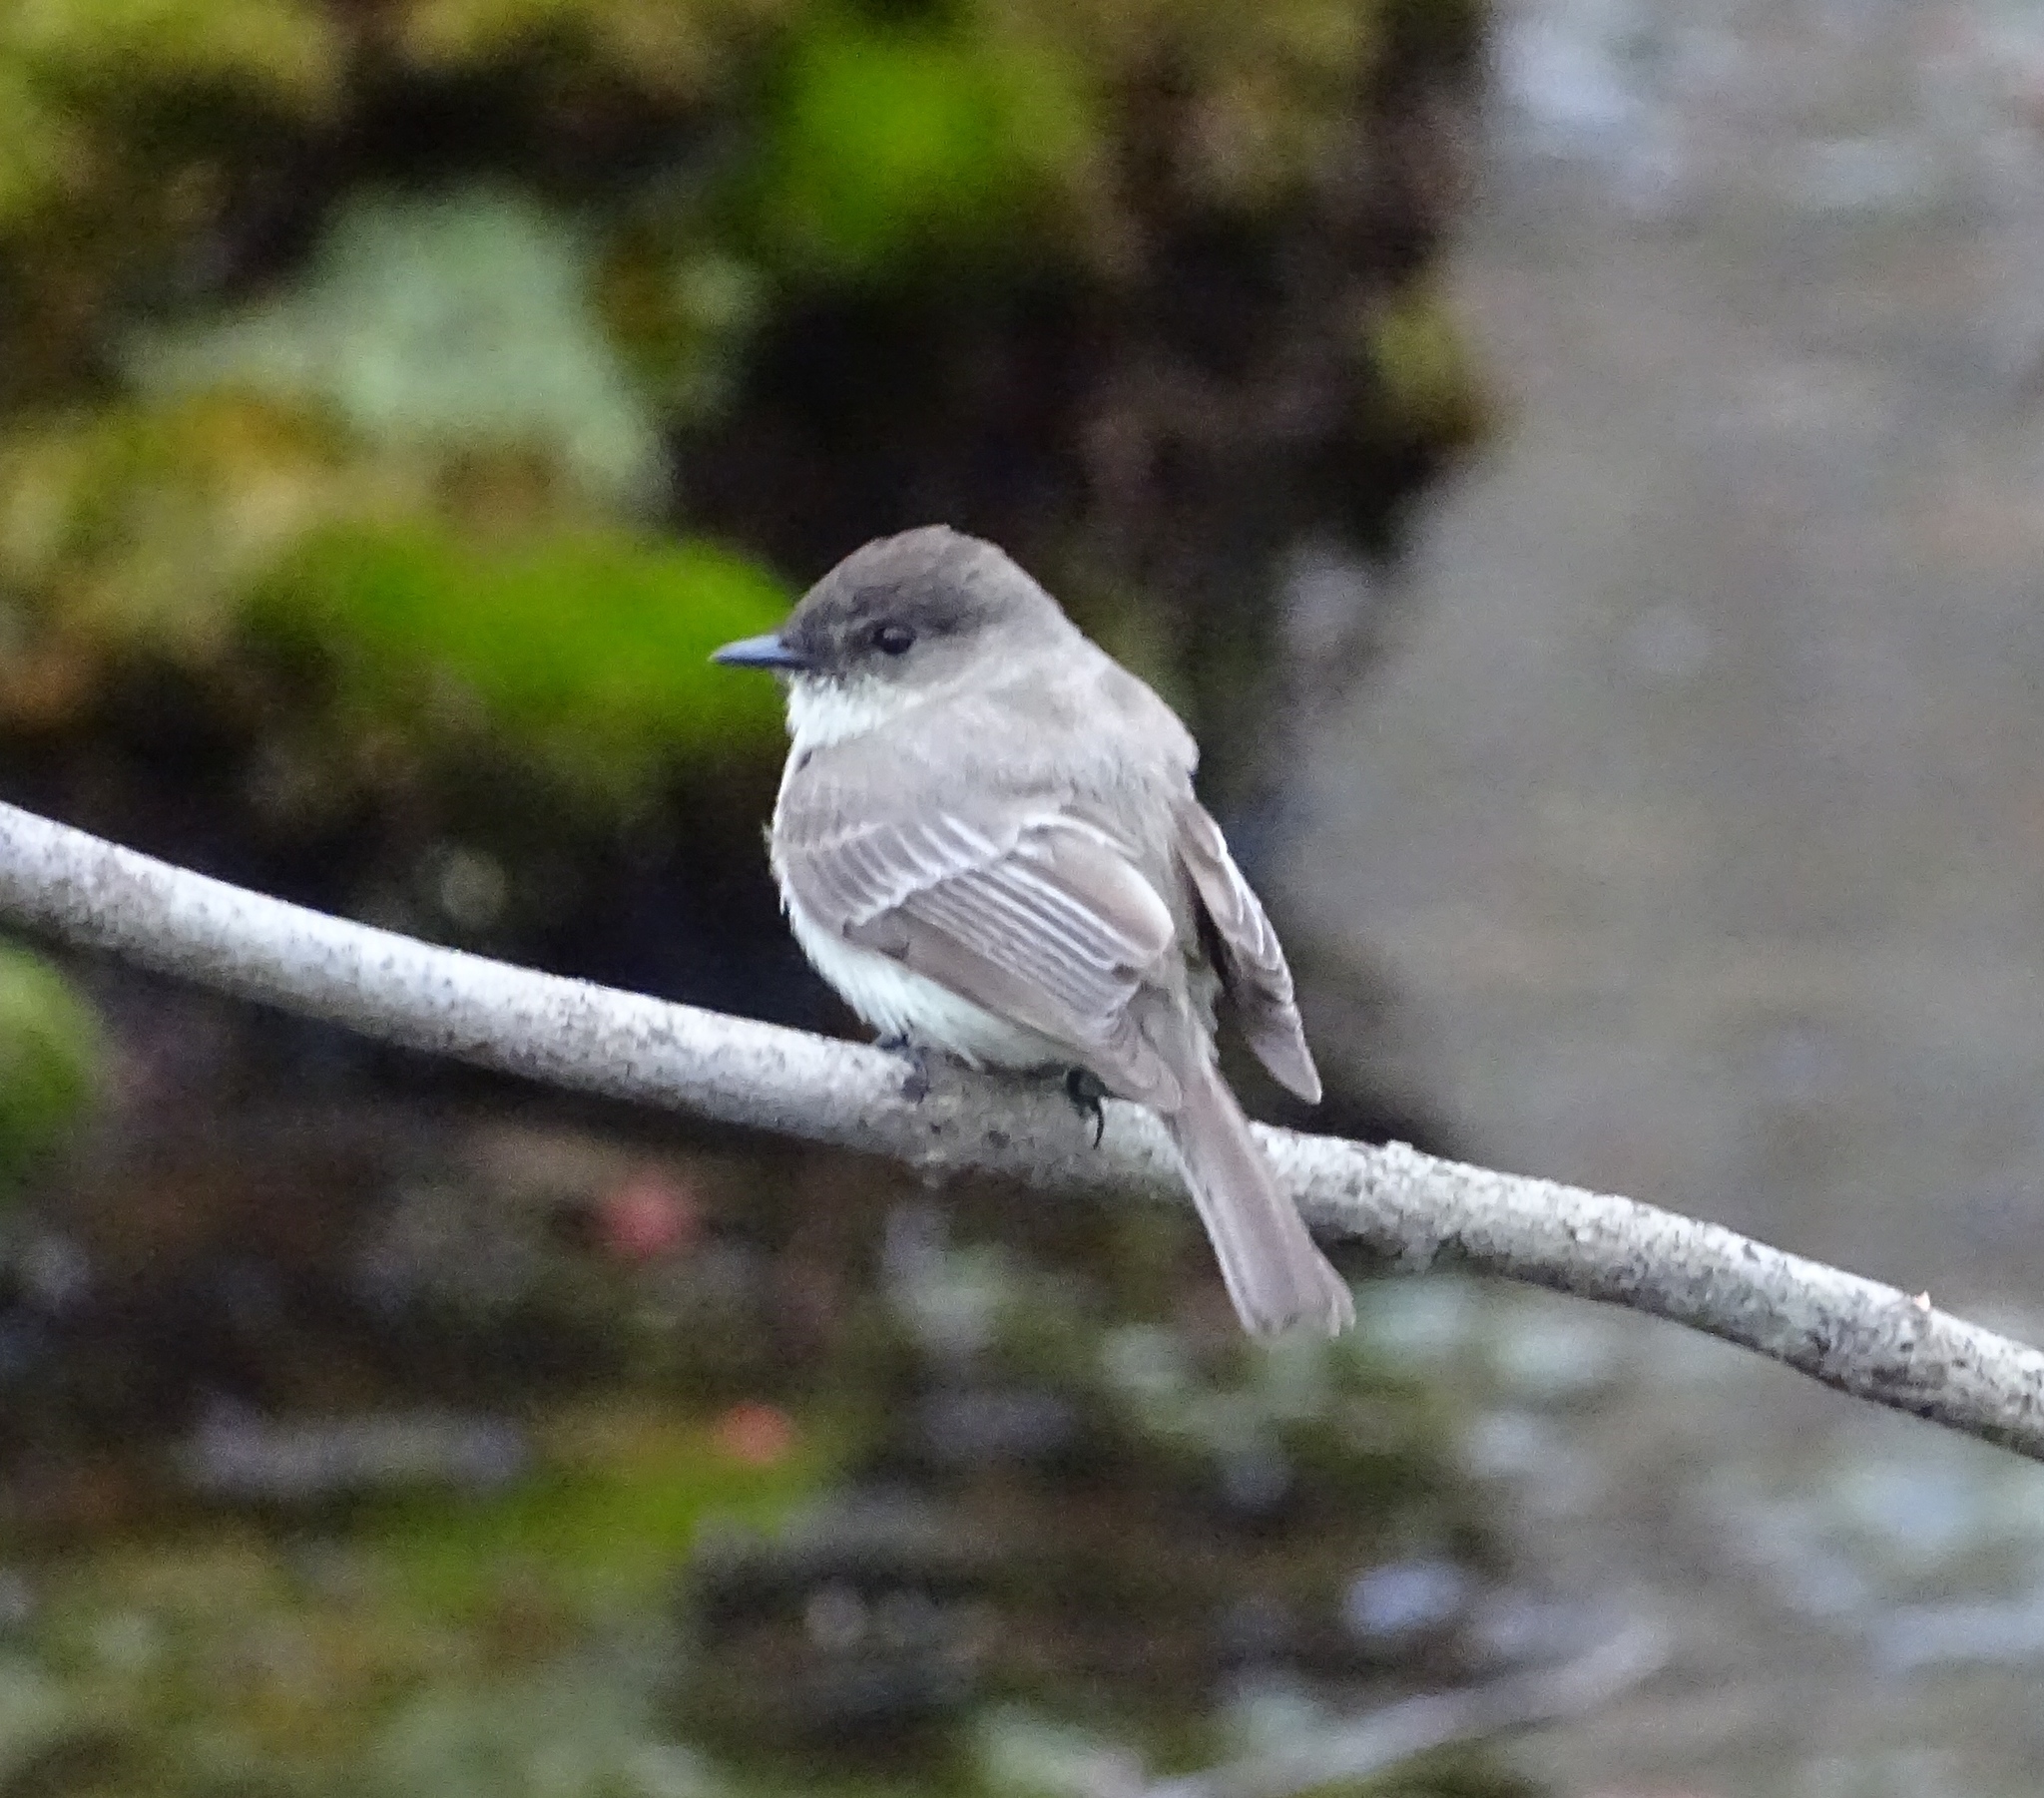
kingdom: Animalia
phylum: Chordata
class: Aves
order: Passeriformes
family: Tyrannidae
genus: Sayornis
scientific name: Sayornis phoebe
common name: Eastern phoebe
